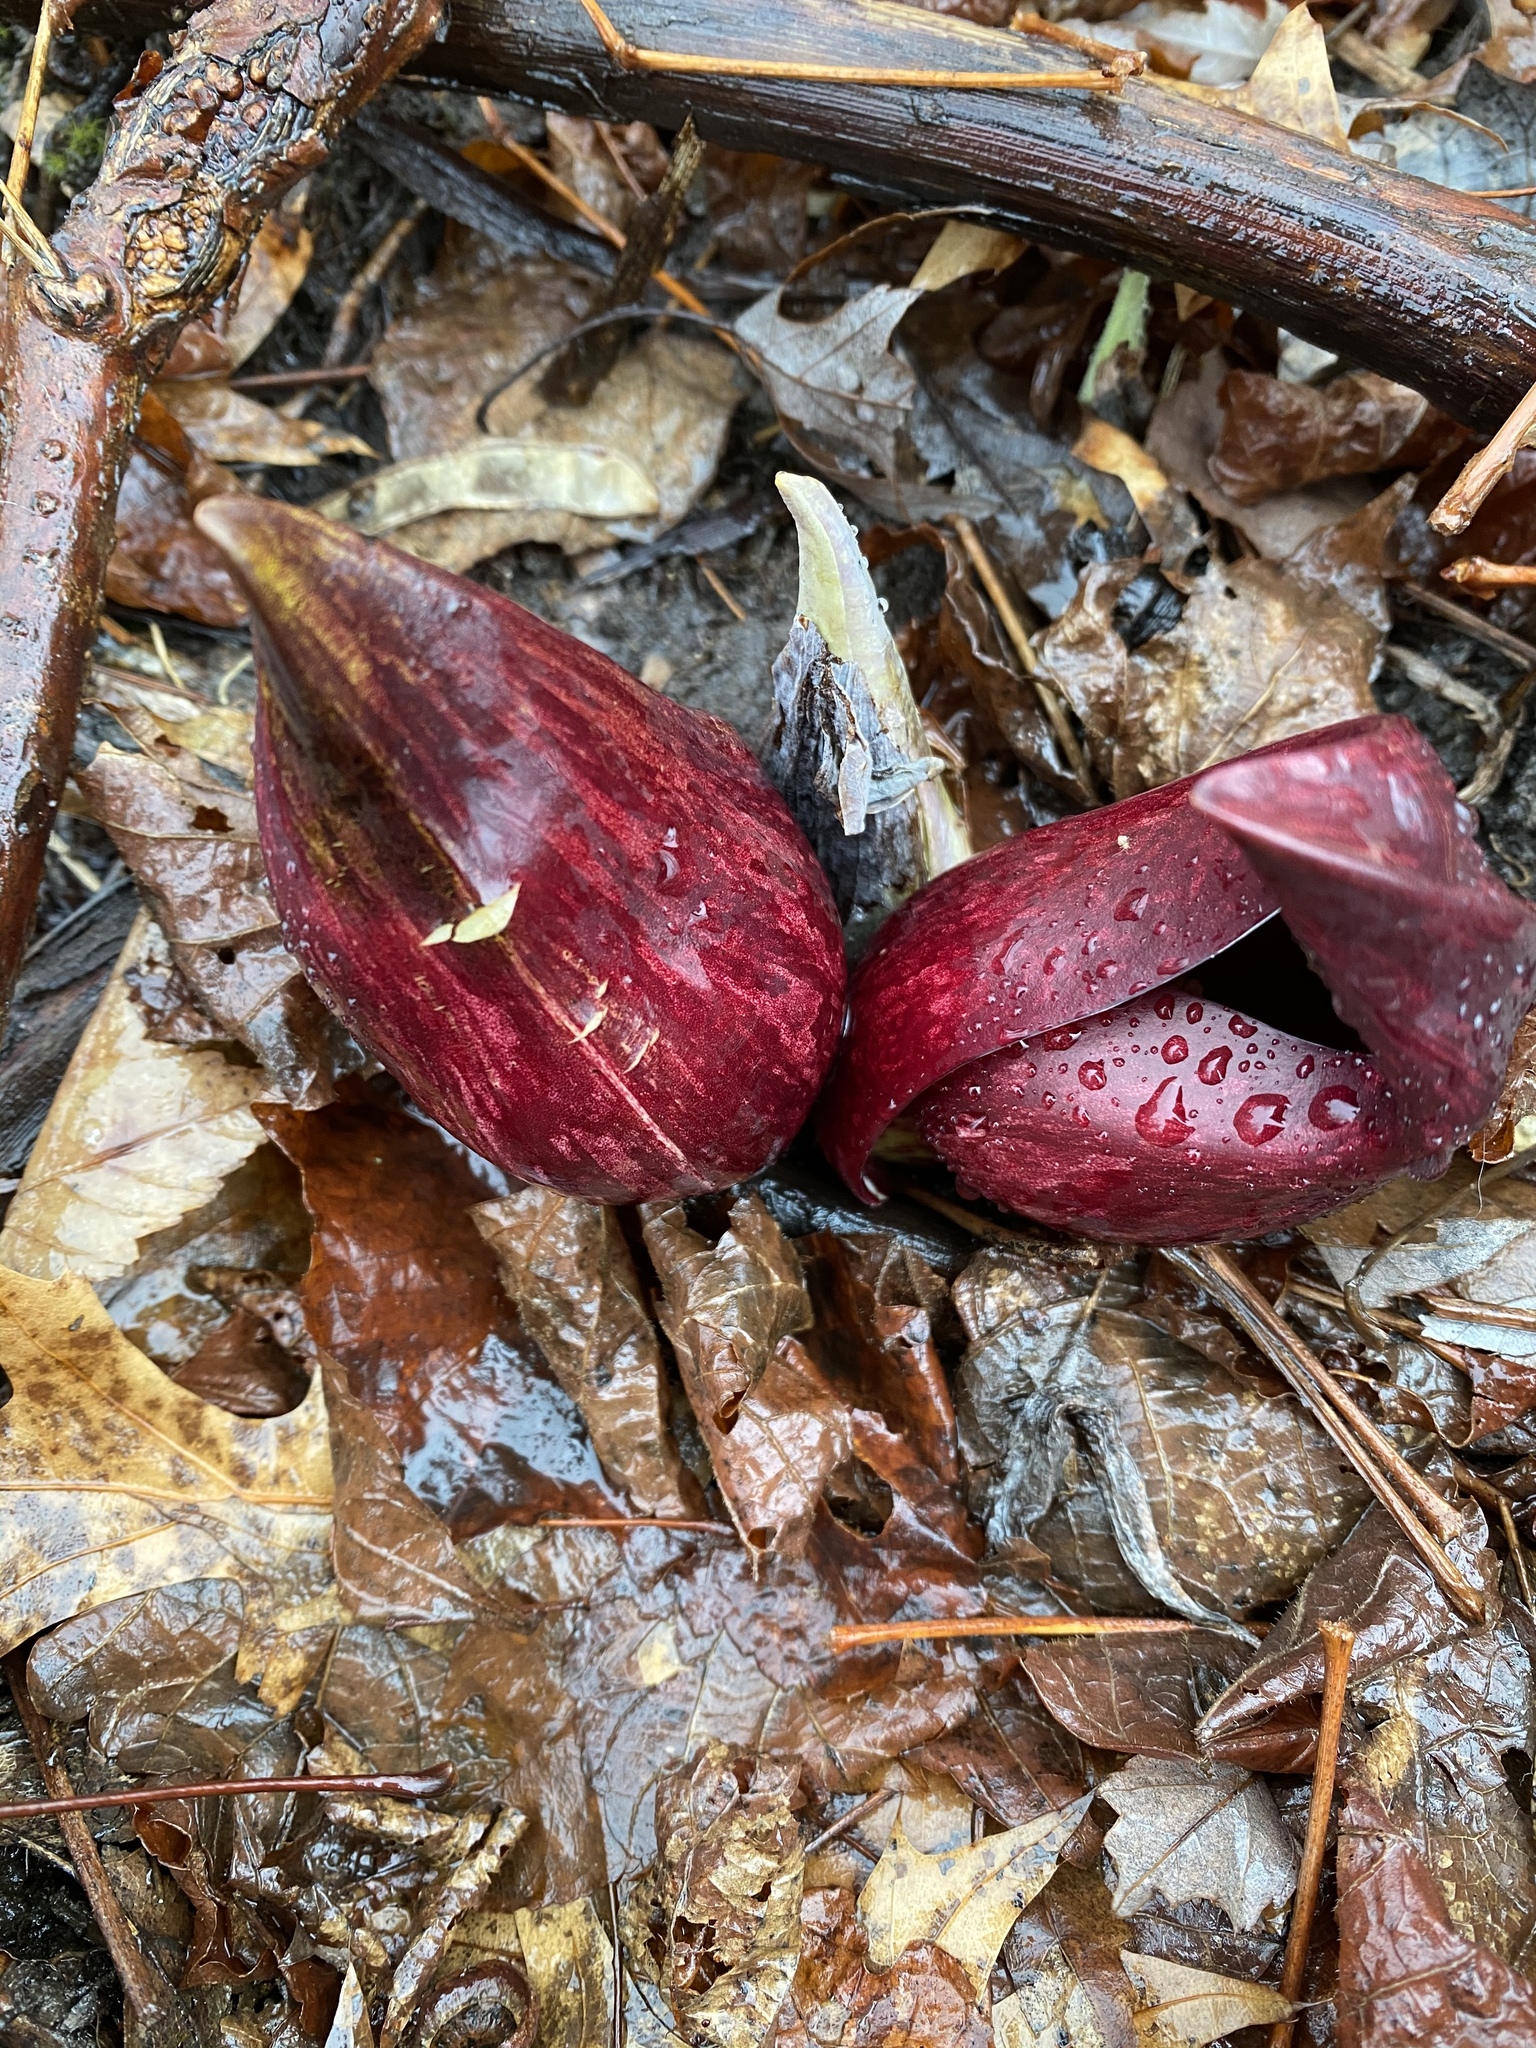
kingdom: Plantae
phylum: Tracheophyta
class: Liliopsida
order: Alismatales
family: Araceae
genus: Symplocarpus
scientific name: Symplocarpus foetidus
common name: Eastern skunk cabbage
